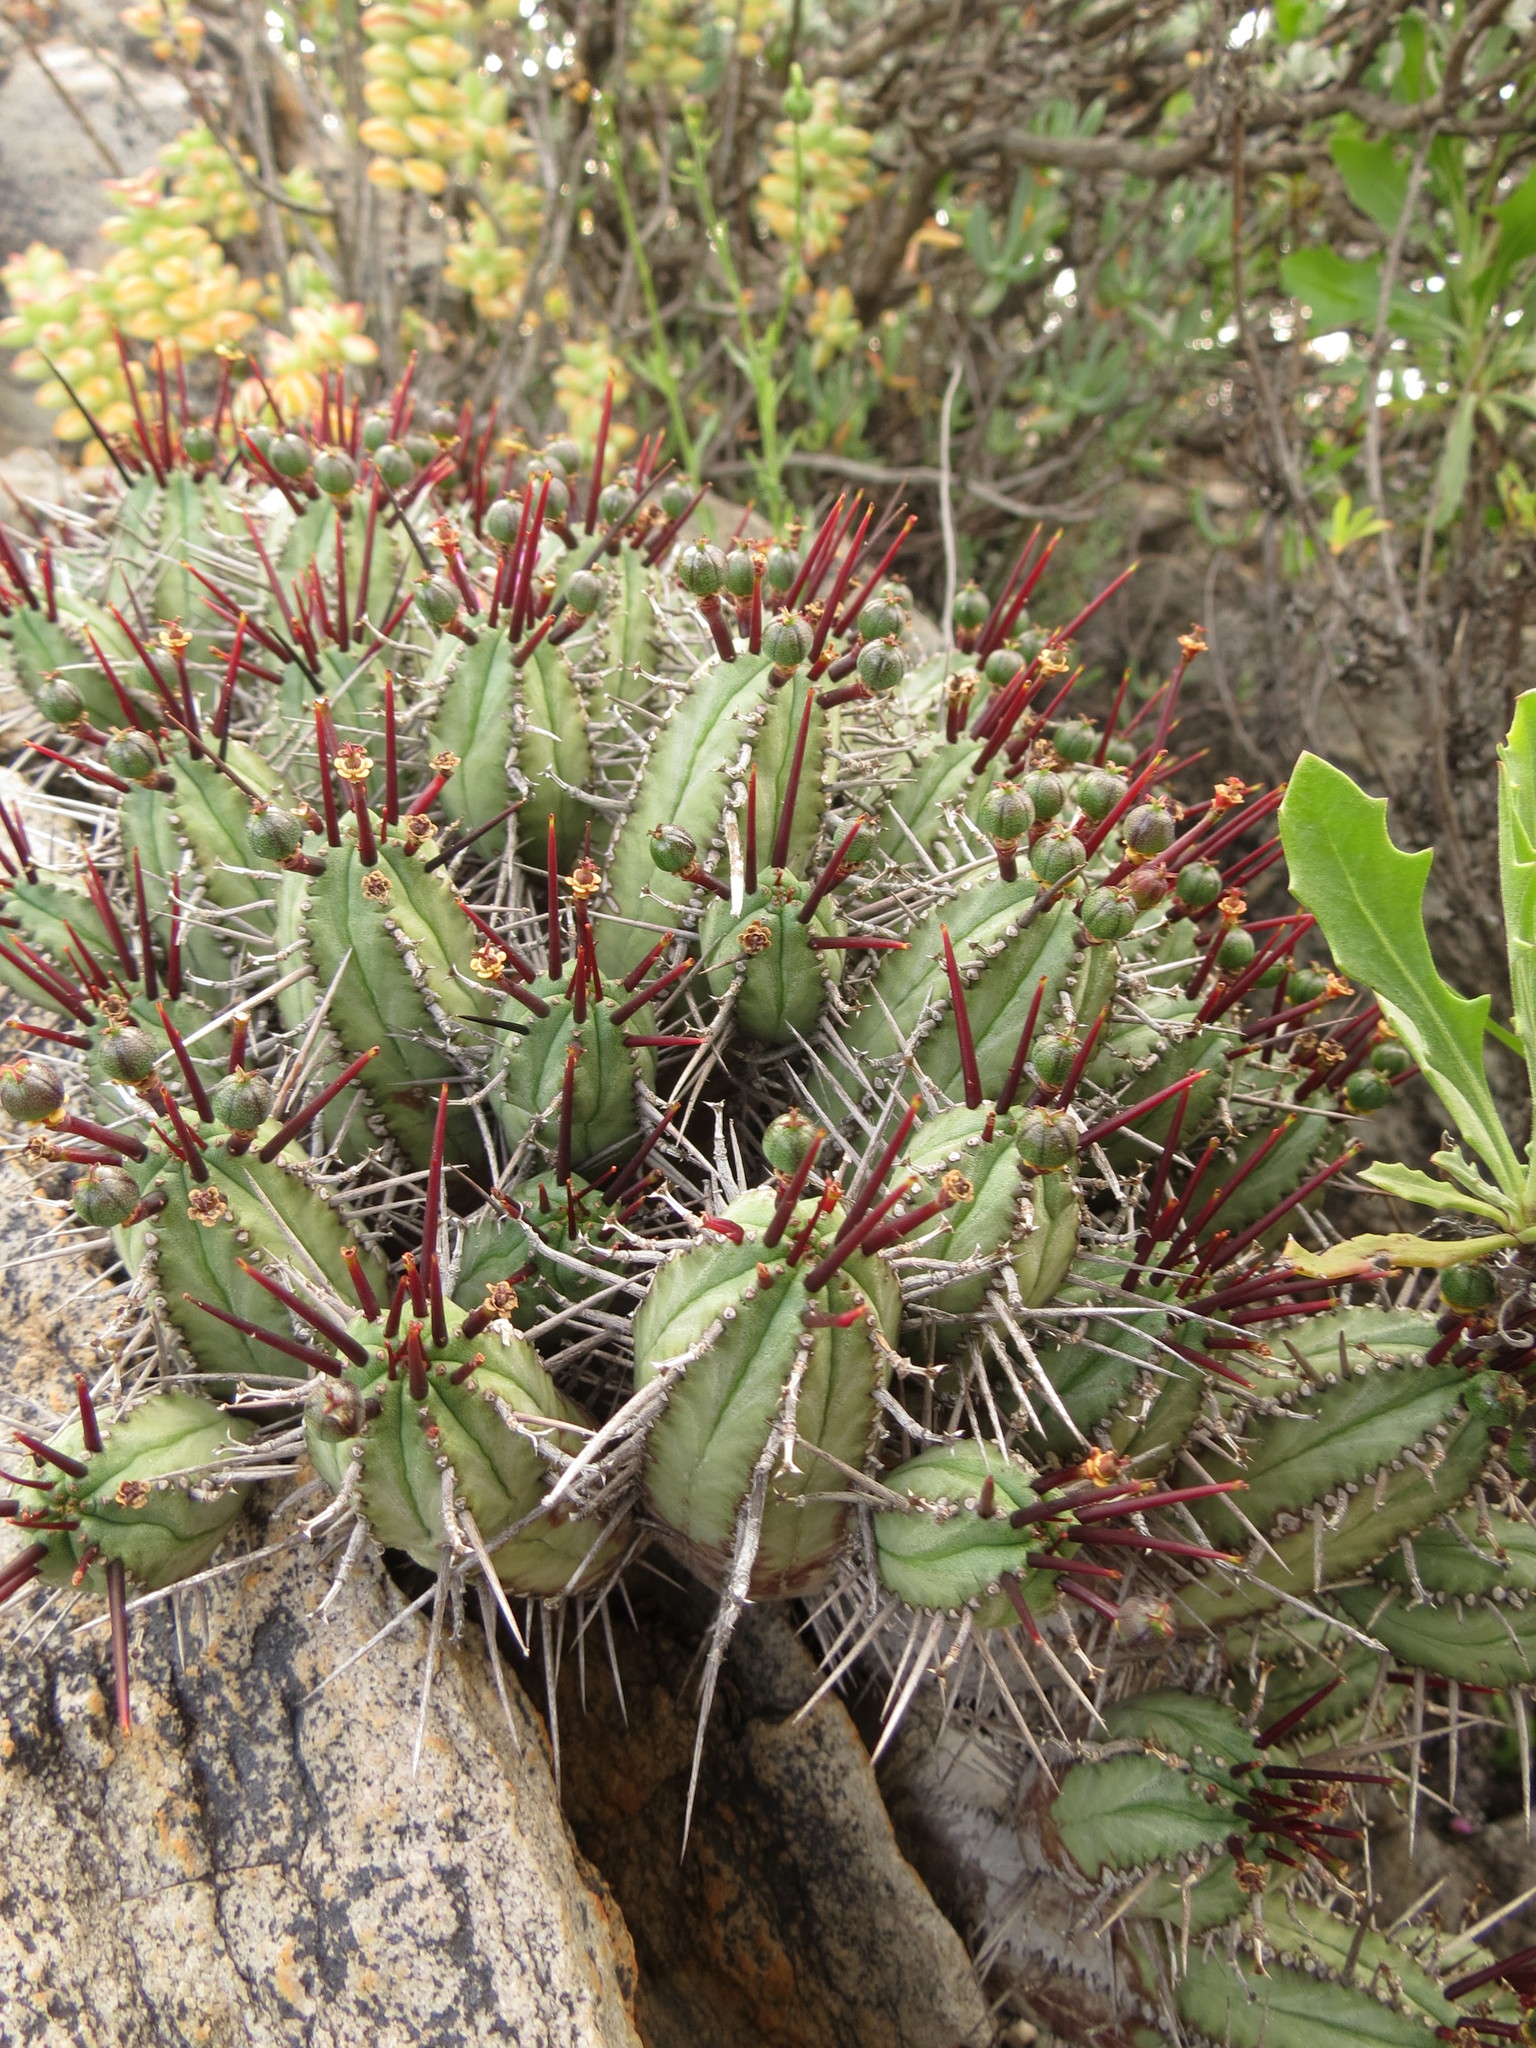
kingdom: Plantae
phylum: Tracheophyta
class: Magnoliopsida
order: Malpighiales
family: Euphorbiaceae
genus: Euphorbia
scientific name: Euphorbia heptagona
